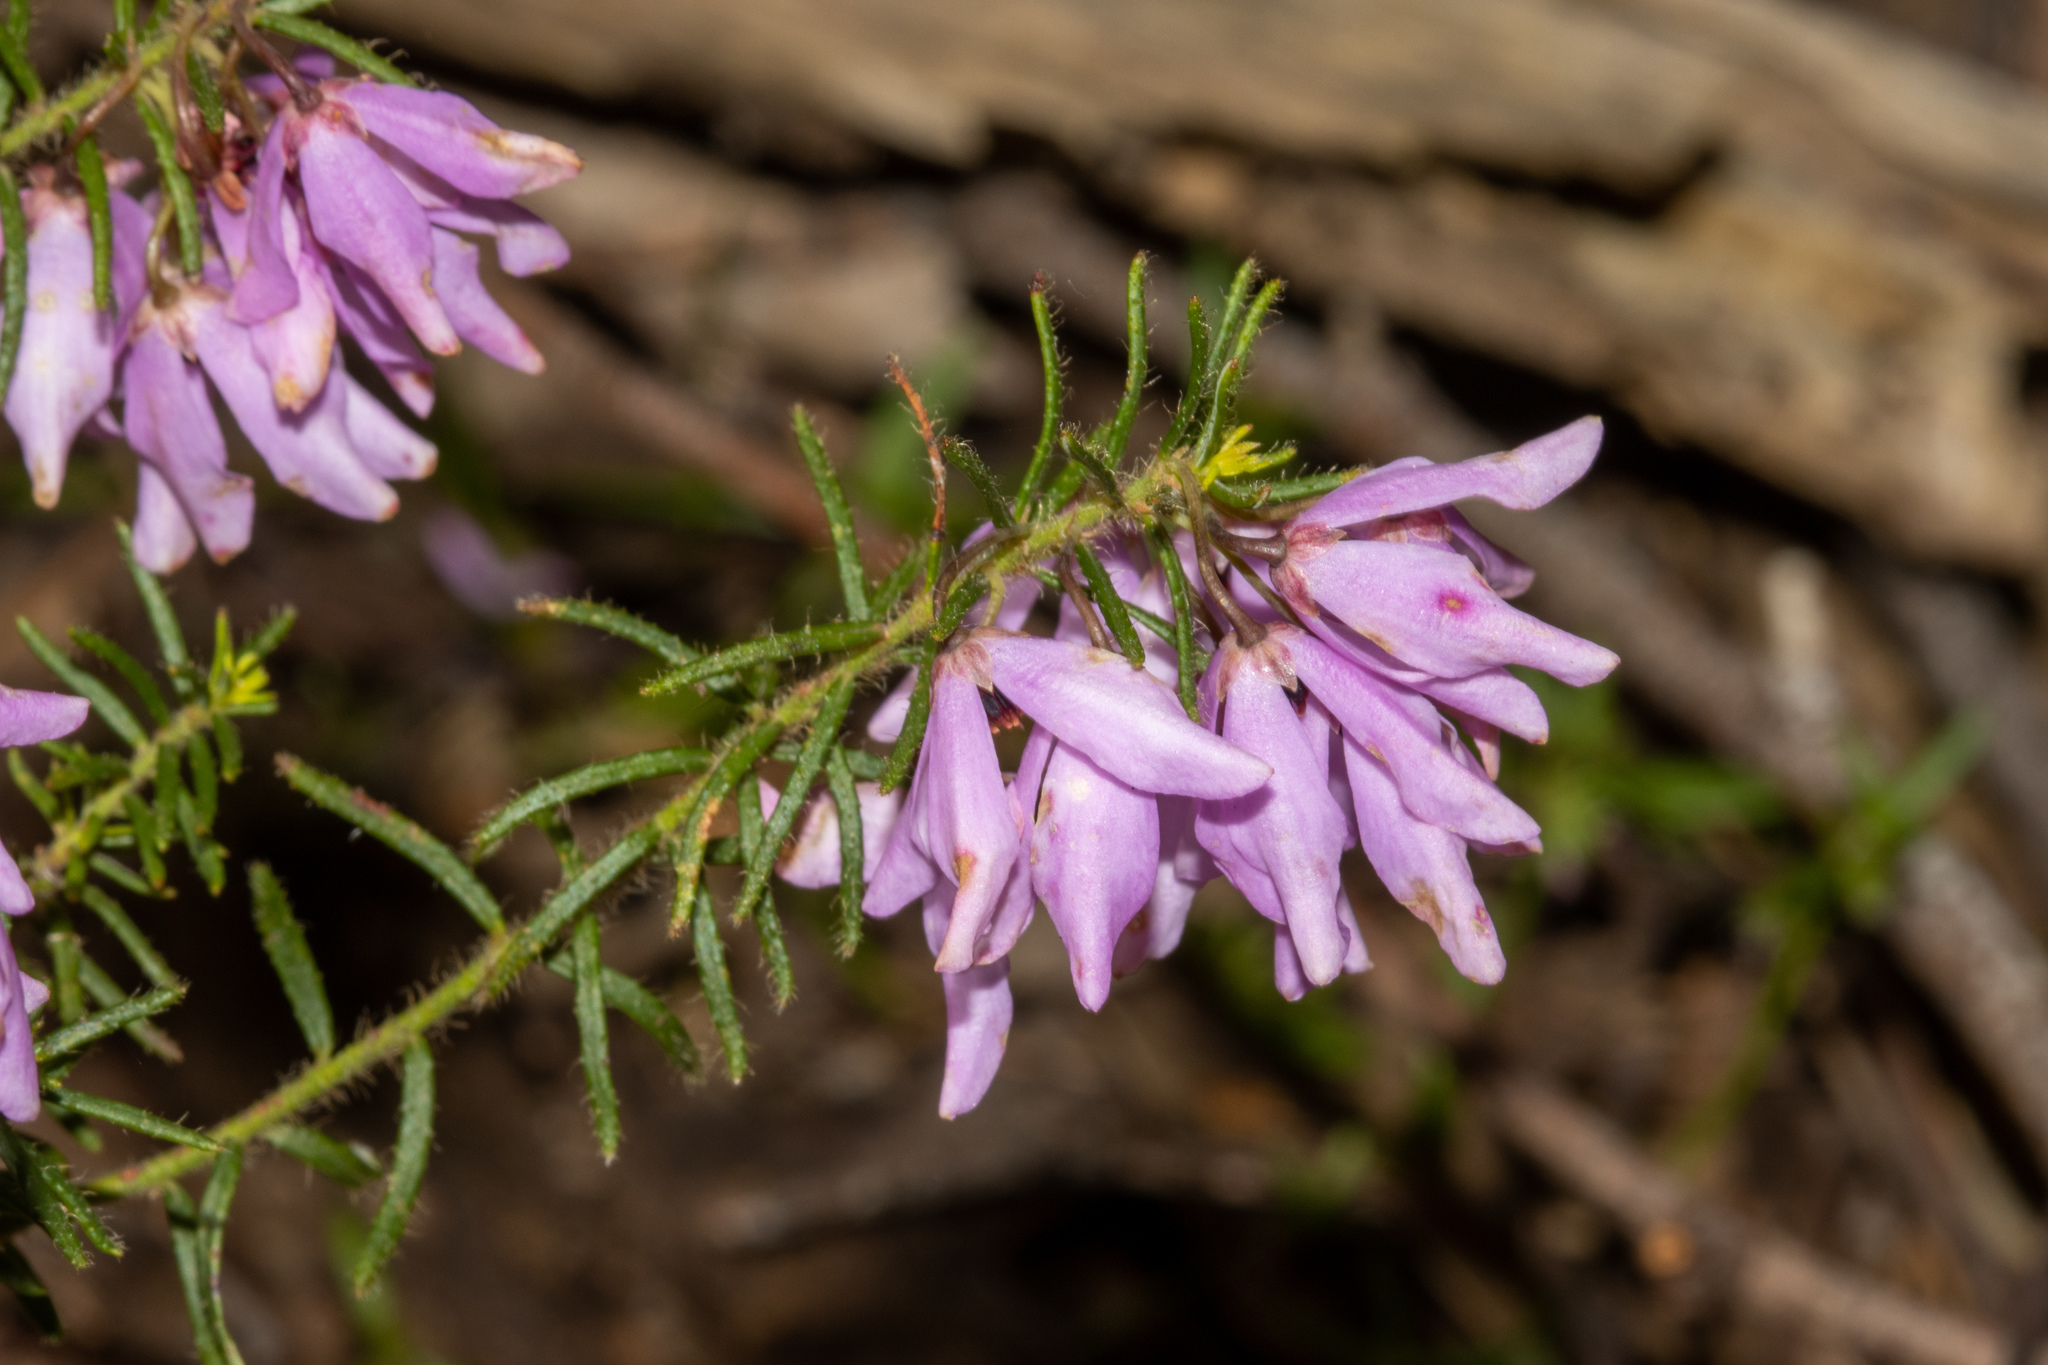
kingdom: Plantae
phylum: Tracheophyta
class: Magnoliopsida
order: Oxalidales
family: Elaeocarpaceae
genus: Tetratheca
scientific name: Tetratheca pilosa
